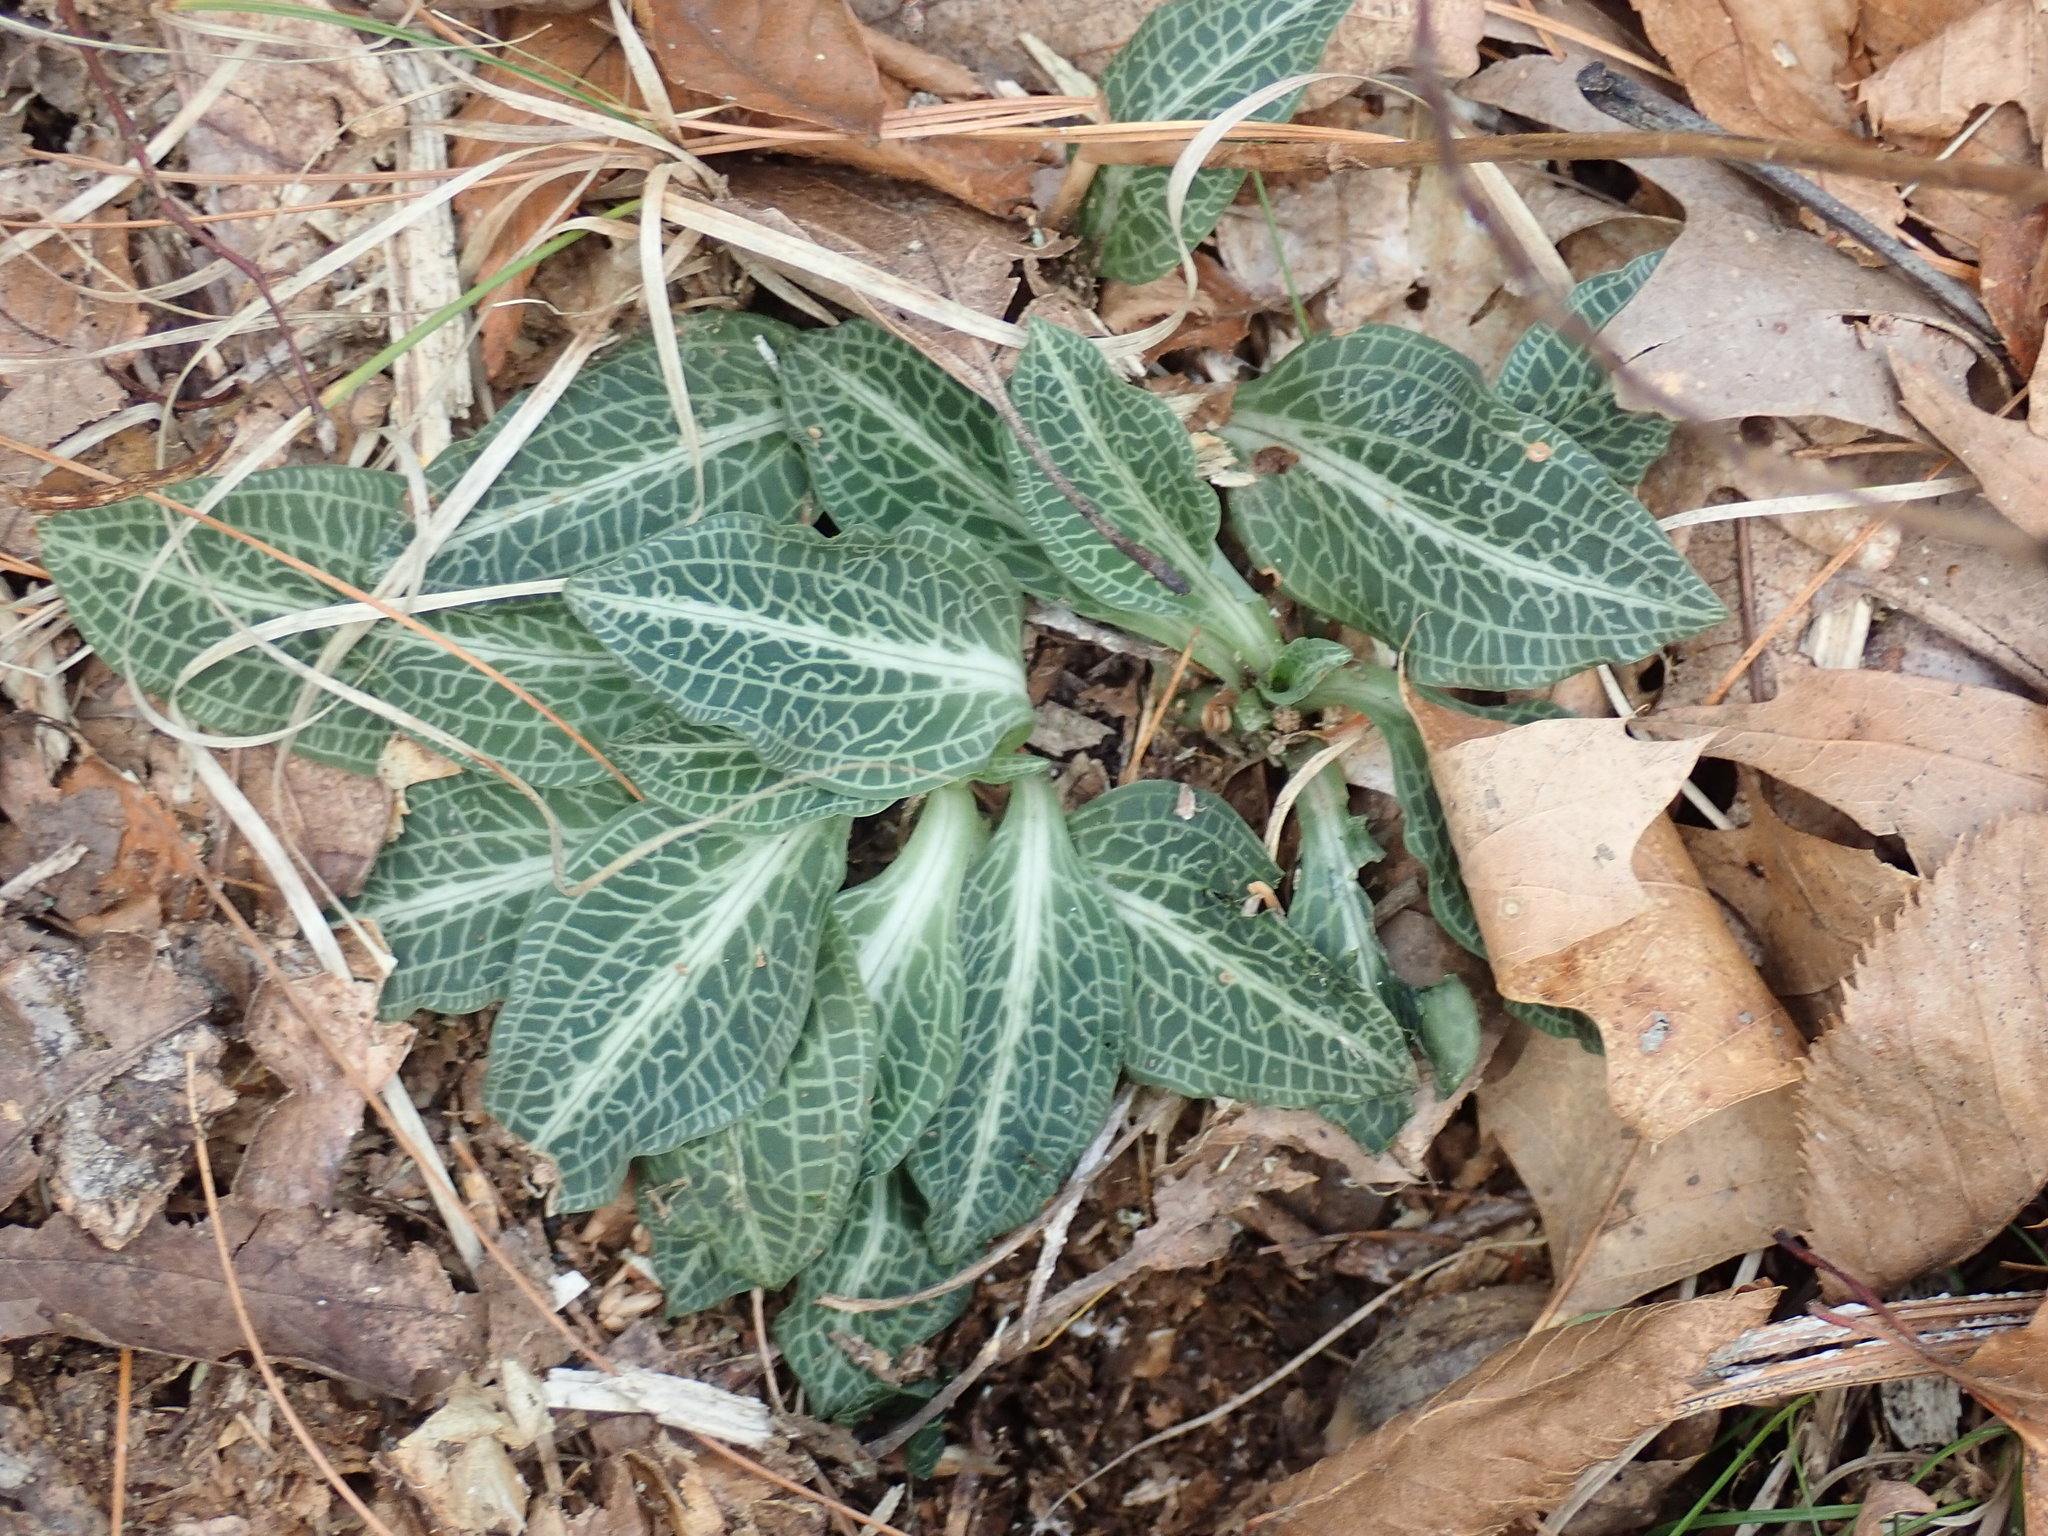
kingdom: Plantae
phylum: Tracheophyta
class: Liliopsida
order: Asparagales
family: Orchidaceae
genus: Goodyera
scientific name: Goodyera pubescens
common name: Downy rattlesnake-plantain
